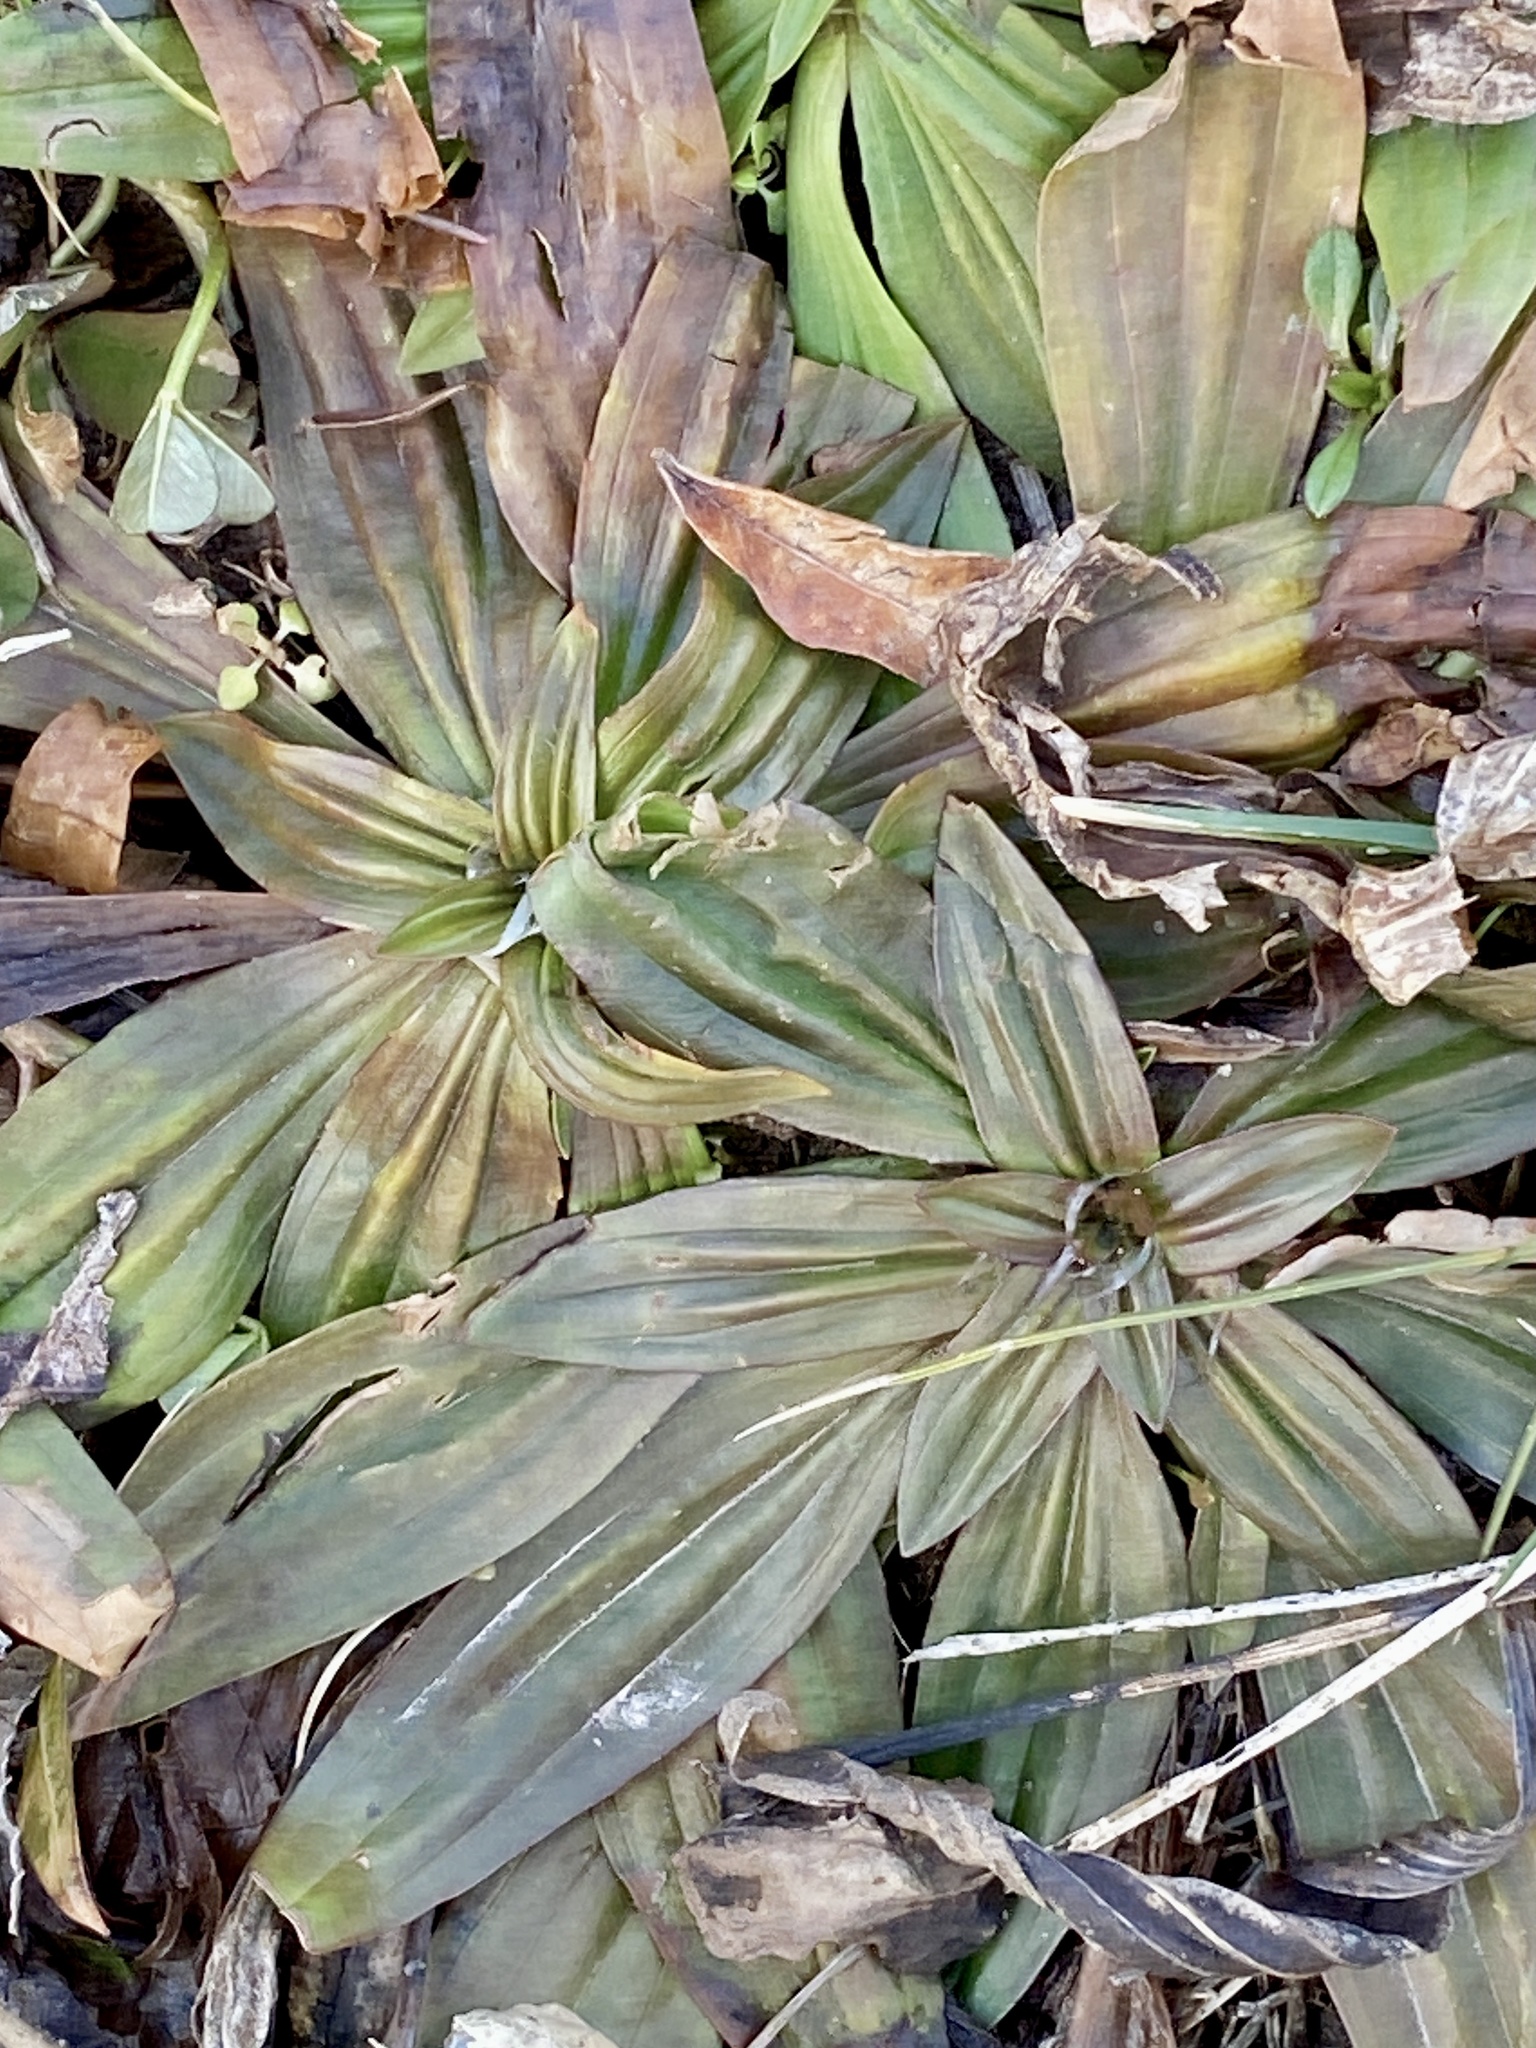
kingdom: Plantae
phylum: Tracheophyta
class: Magnoliopsida
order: Lamiales
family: Plantaginaceae
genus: Plantago
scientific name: Plantago lanceolata
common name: Ribwort plantain
